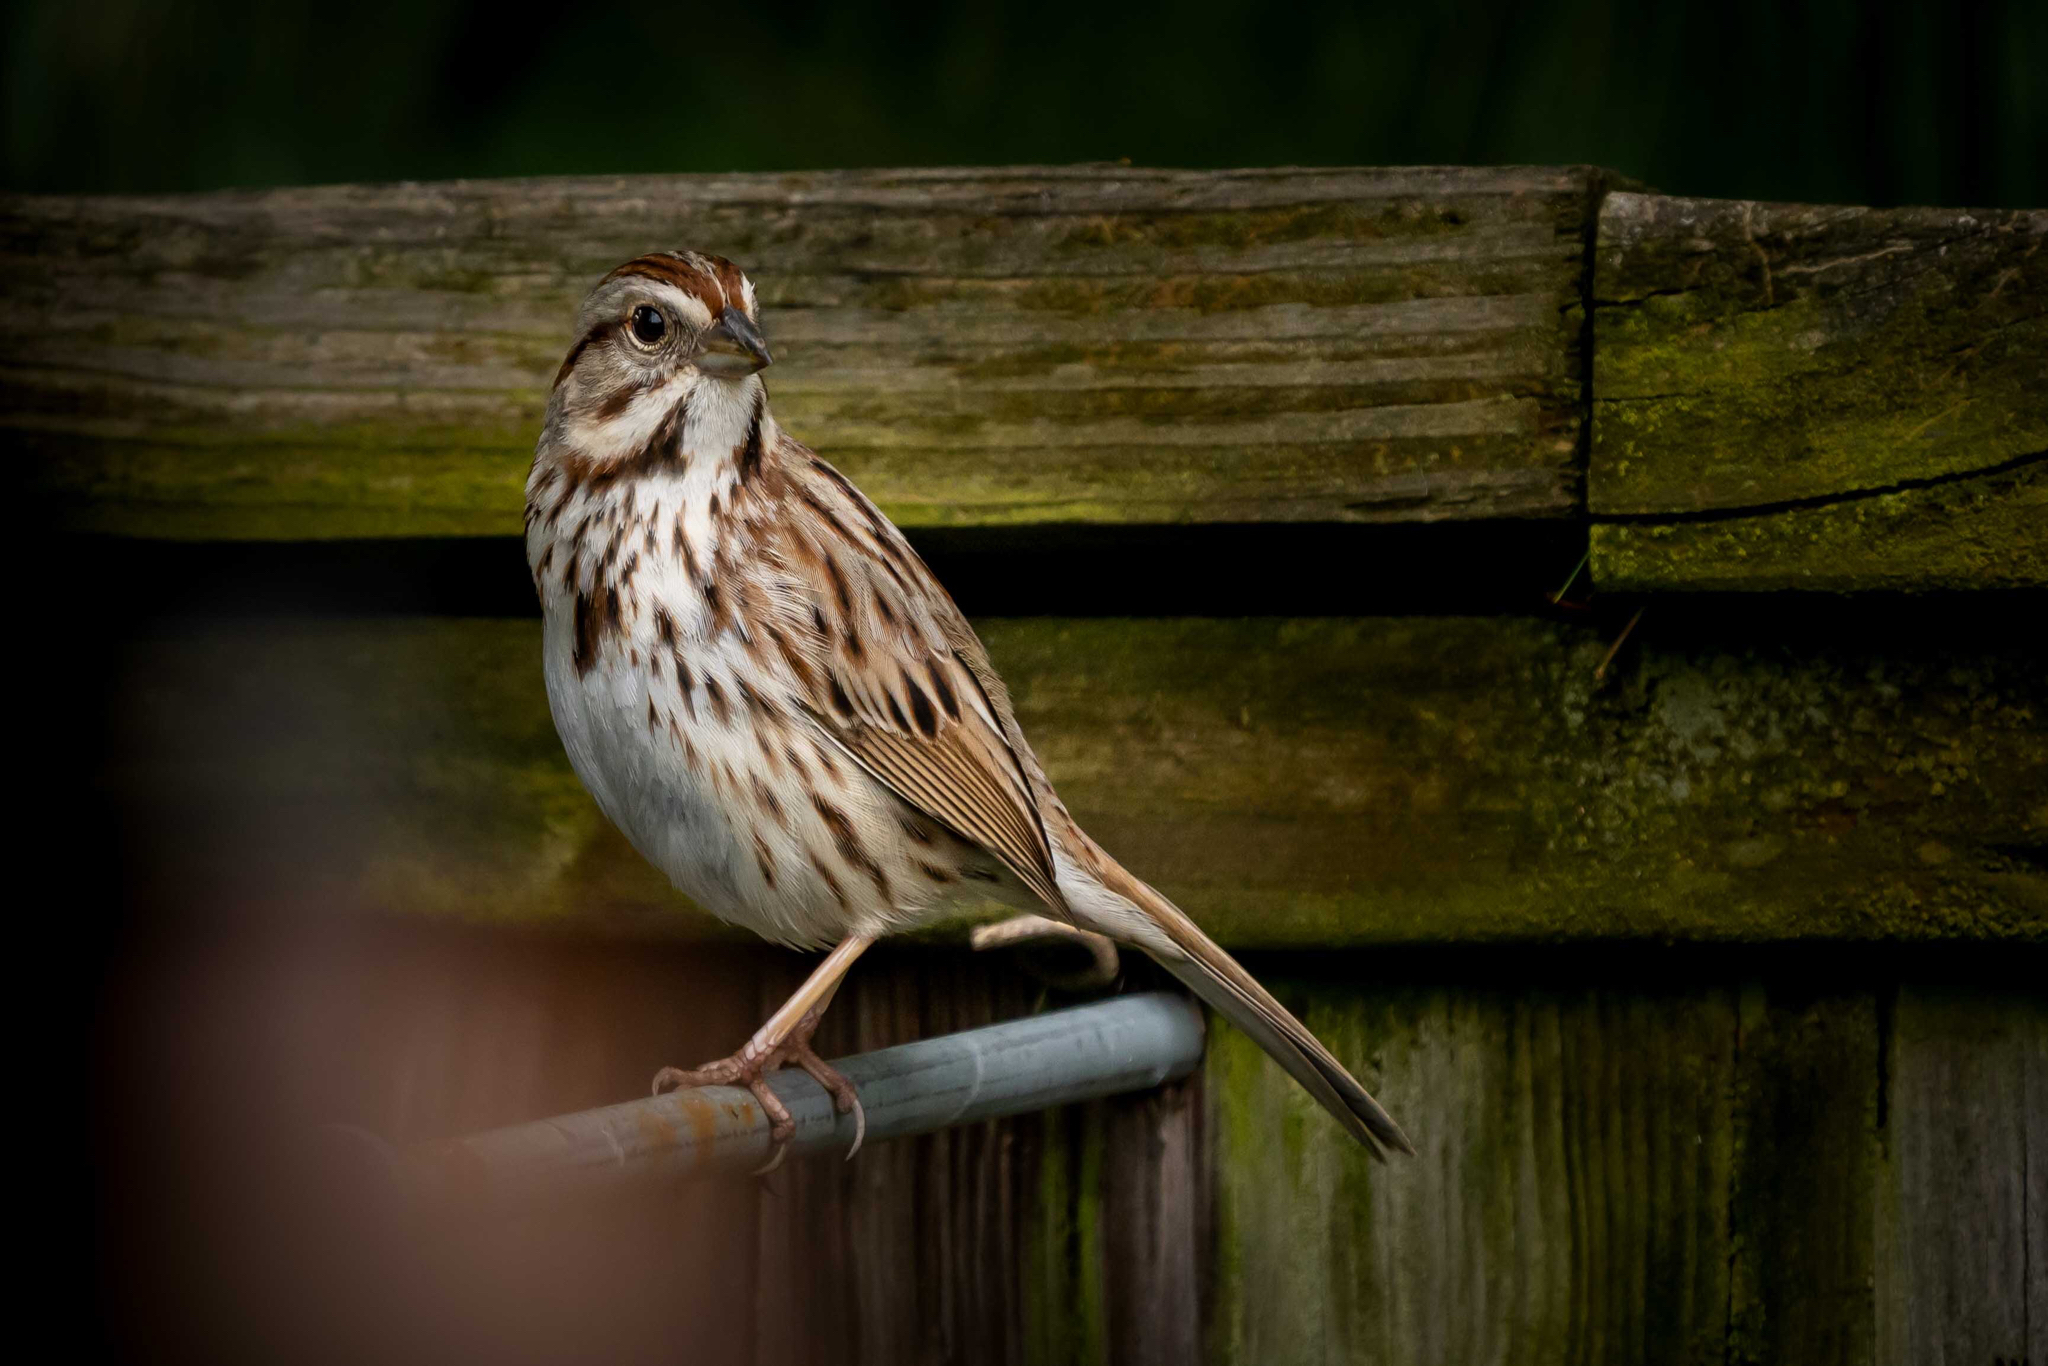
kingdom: Animalia
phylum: Chordata
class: Aves
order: Passeriformes
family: Passerellidae
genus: Melospiza
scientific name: Melospiza melodia
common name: Song sparrow
